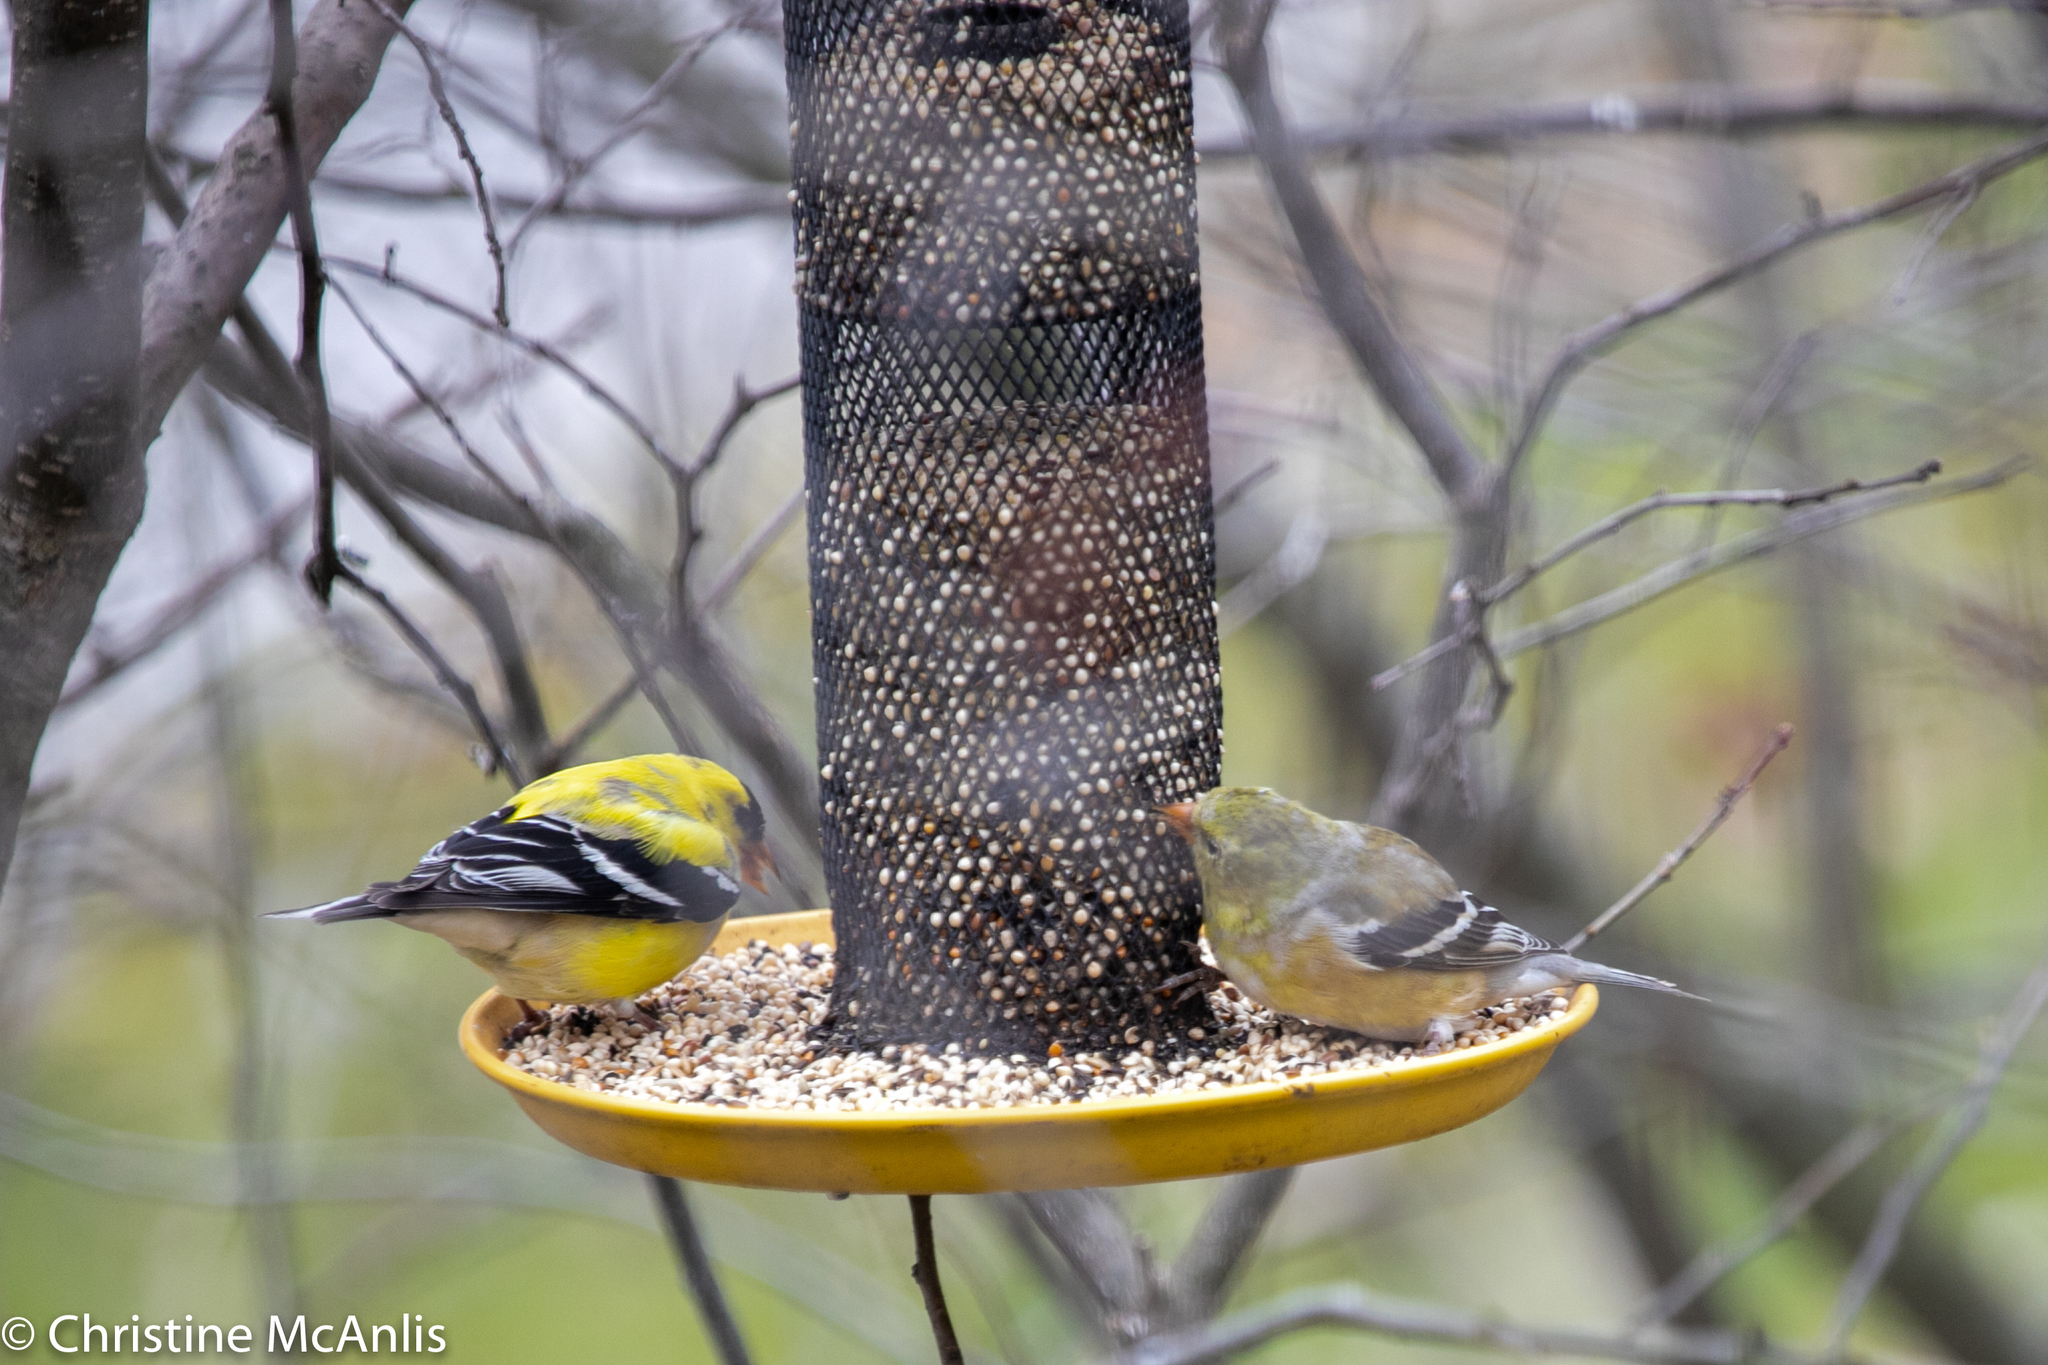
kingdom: Animalia
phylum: Chordata
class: Aves
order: Passeriformes
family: Fringillidae
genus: Spinus
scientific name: Spinus tristis
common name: American goldfinch
